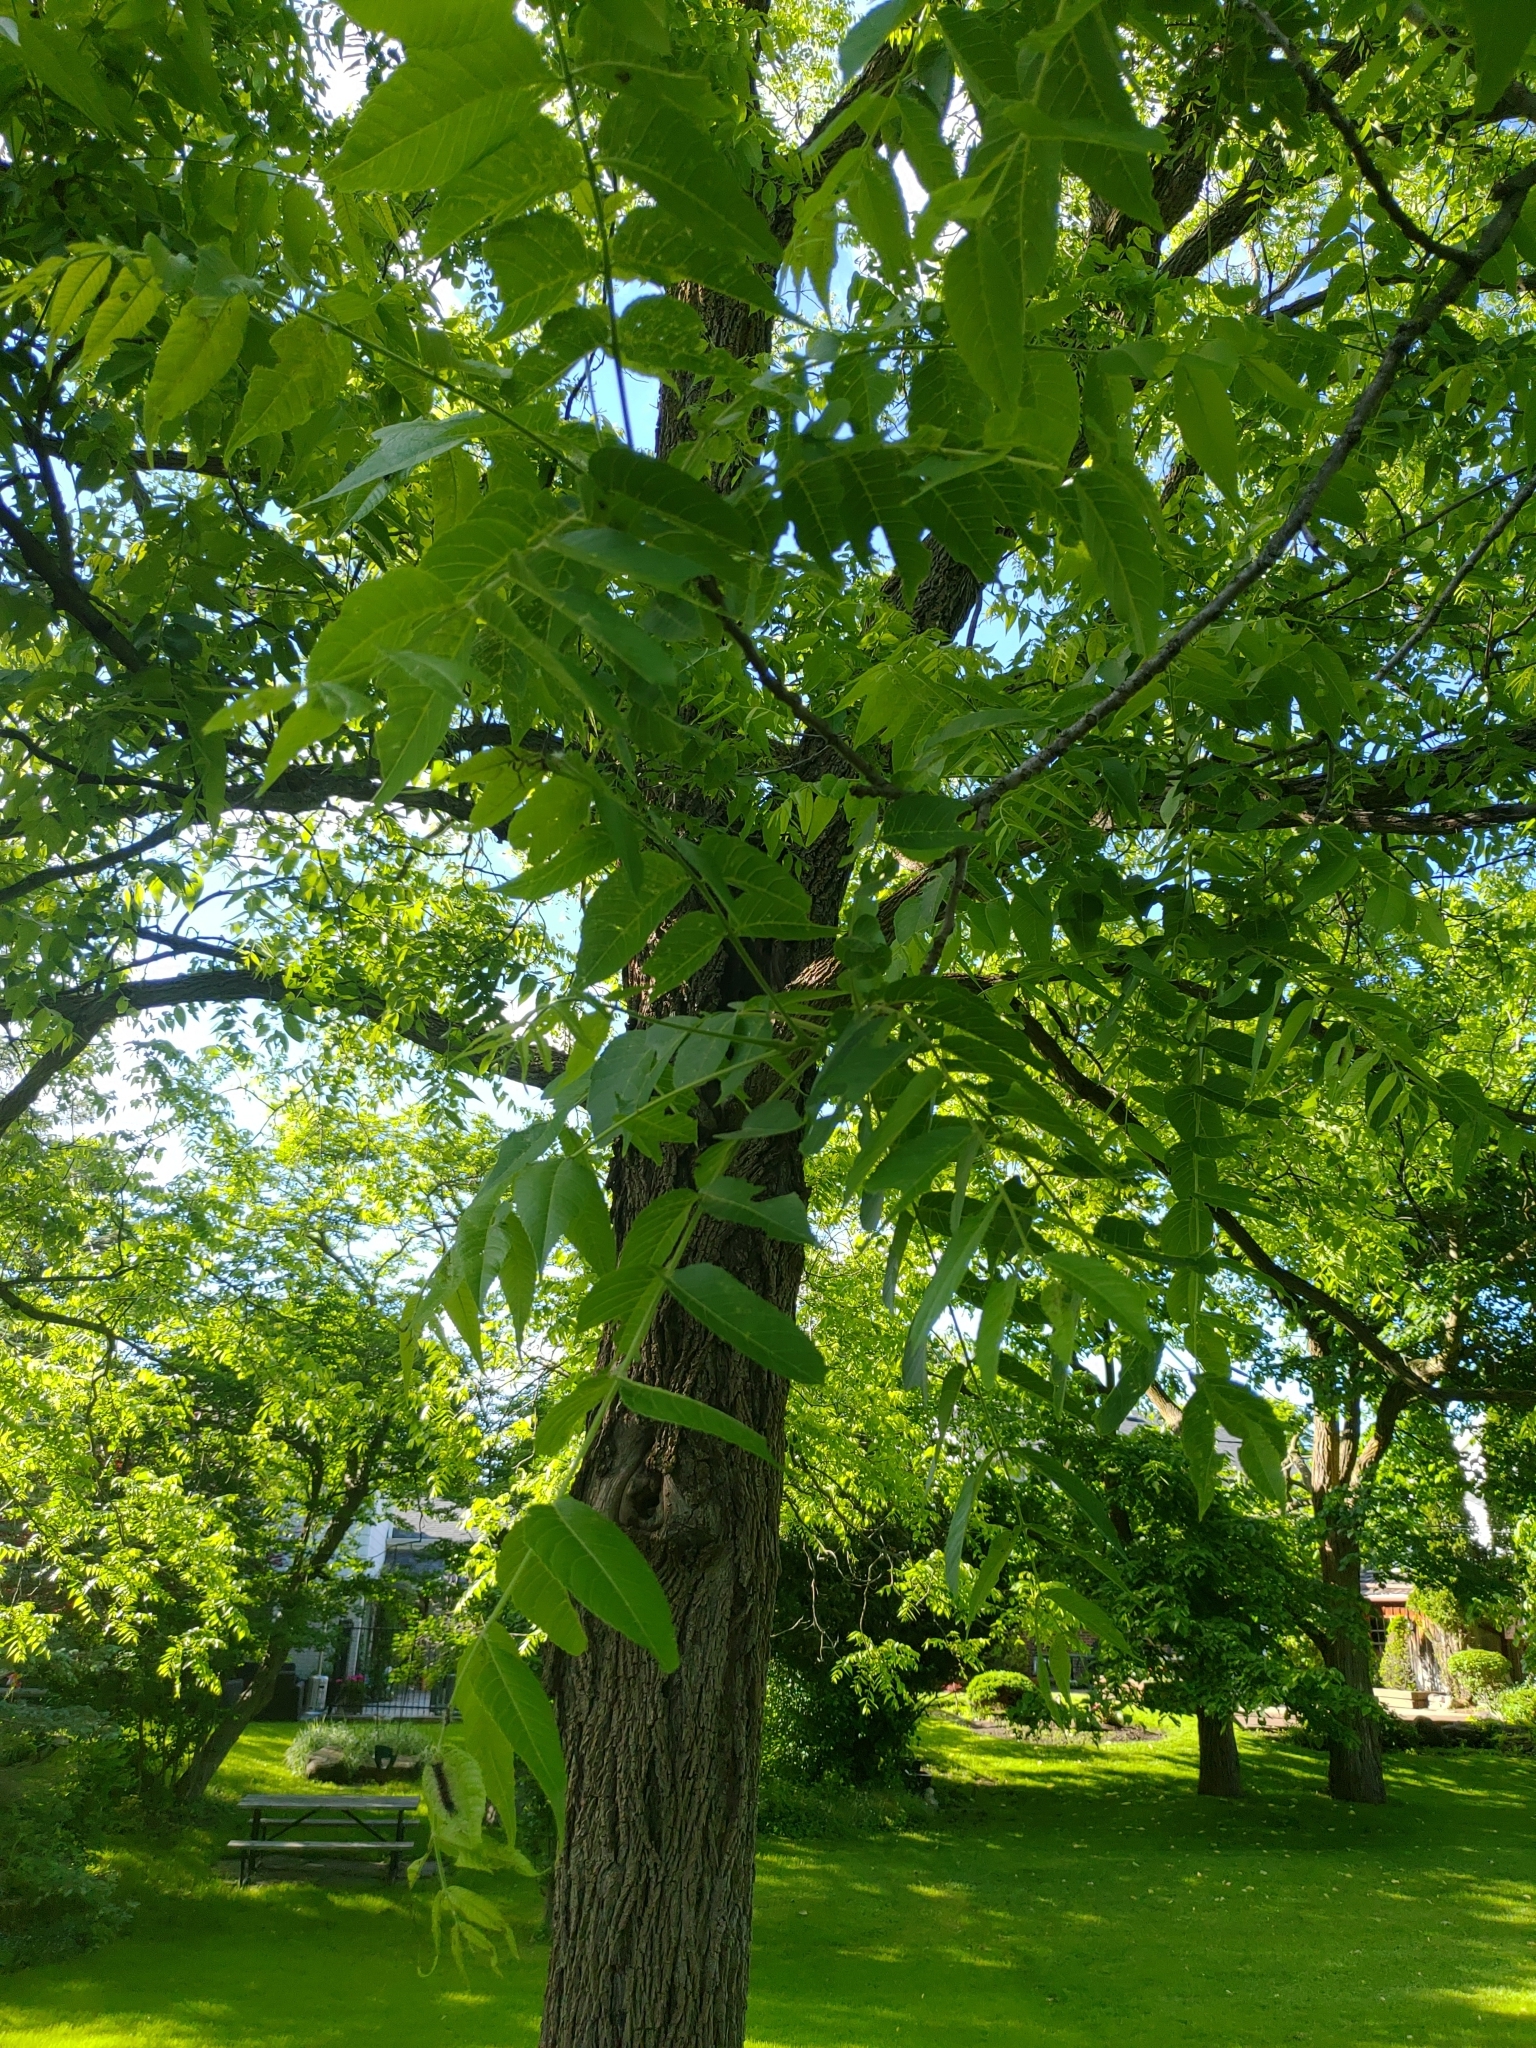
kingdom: Plantae
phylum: Tracheophyta
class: Magnoliopsida
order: Fagales
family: Juglandaceae
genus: Juglans
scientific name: Juglans nigra
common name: Black walnut
